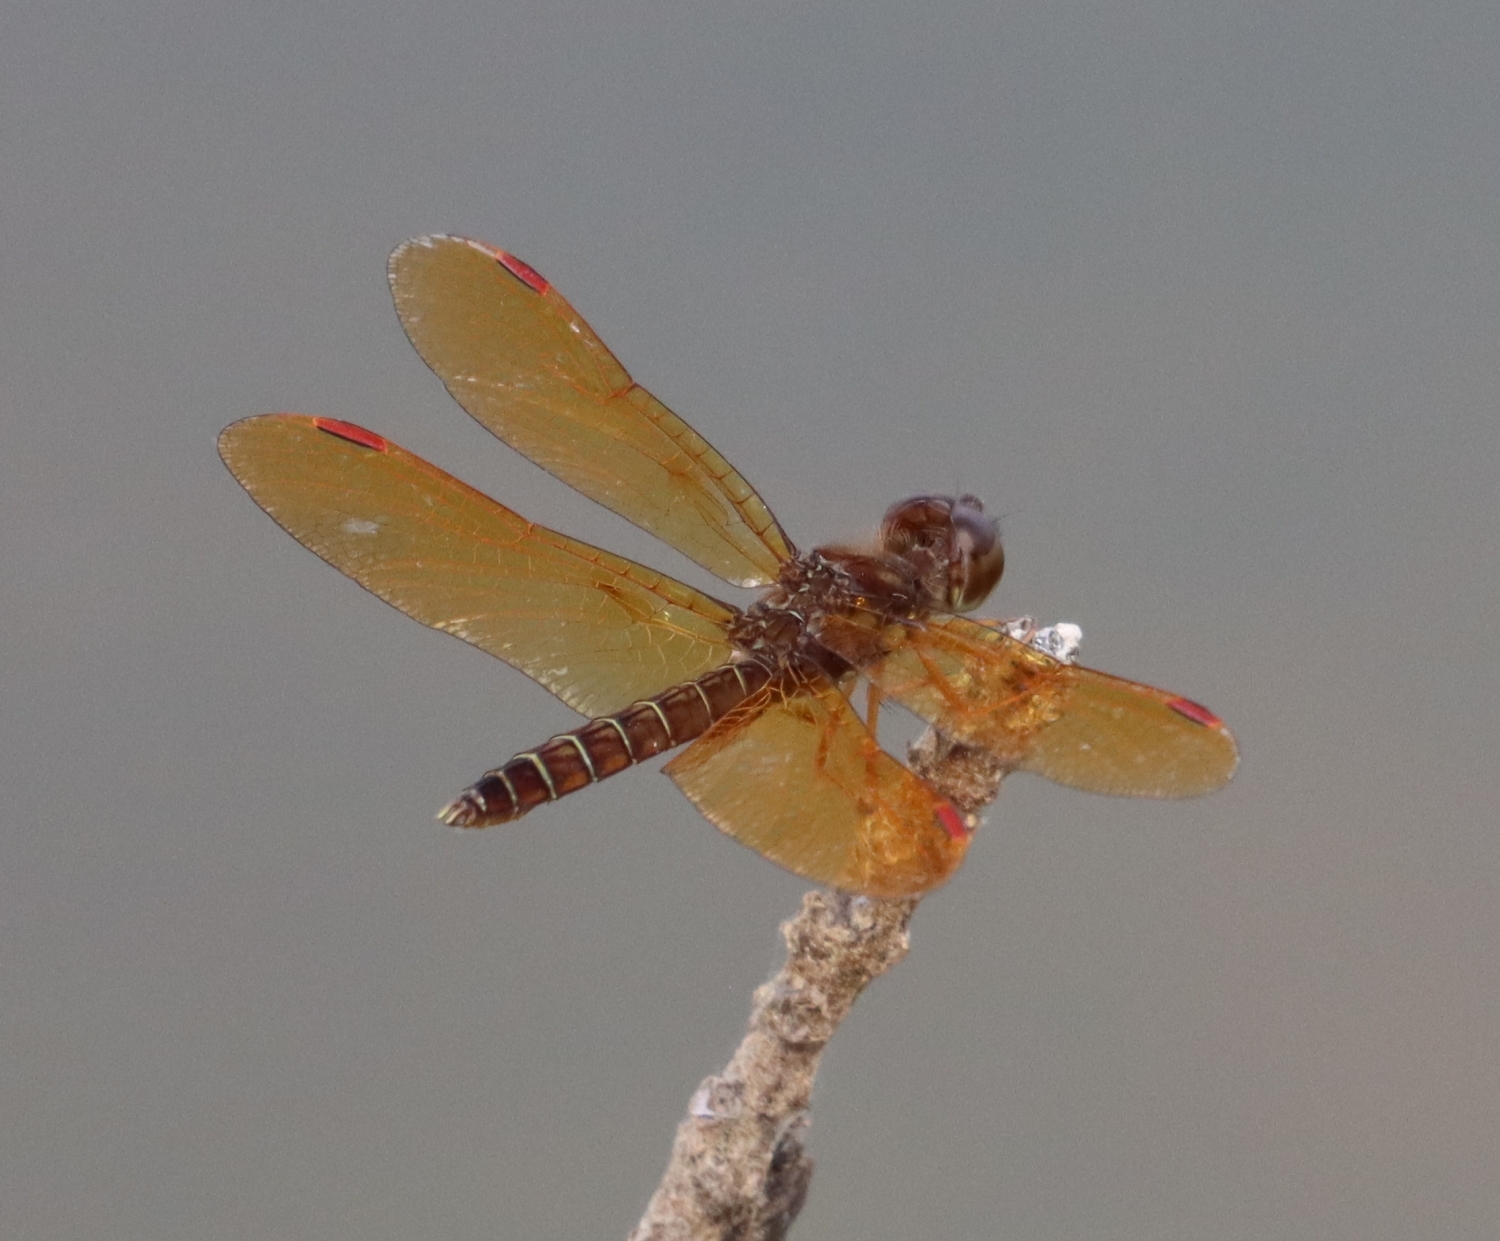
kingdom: Animalia
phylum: Arthropoda
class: Insecta
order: Odonata
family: Libellulidae
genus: Perithemis
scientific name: Perithemis tenera
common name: Eastern amberwing
